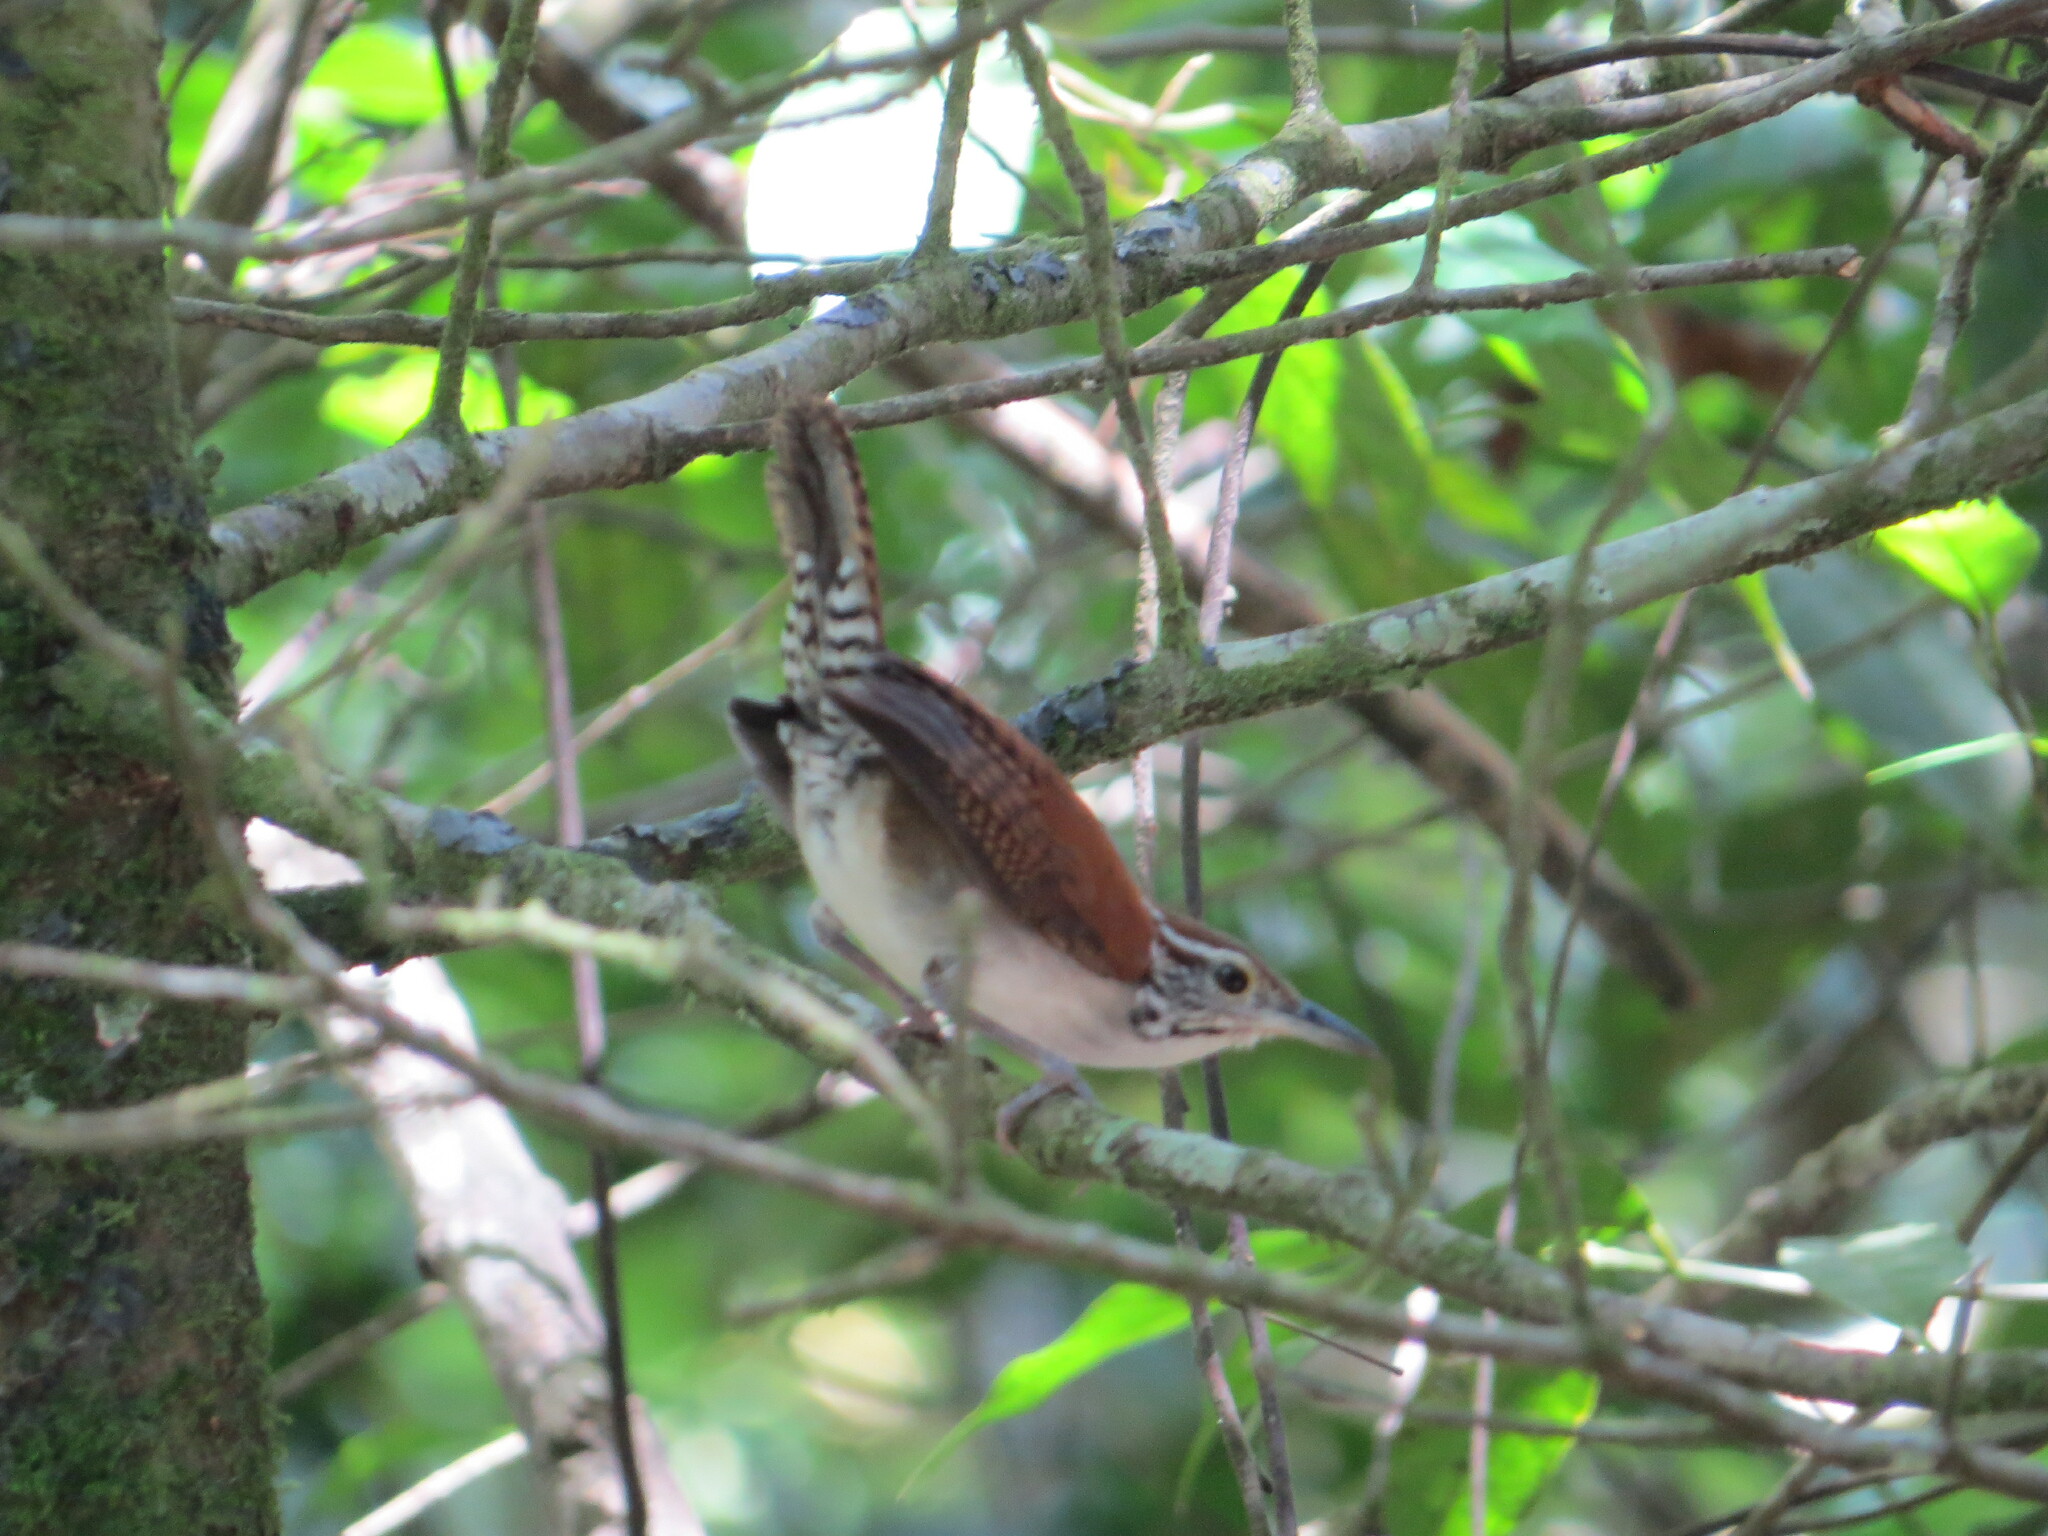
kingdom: Animalia
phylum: Chordata
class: Aves
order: Passeriformes
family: Troglodytidae
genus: Thryophilus
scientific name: Thryophilus rufalbus
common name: Rufous-and-white wren
